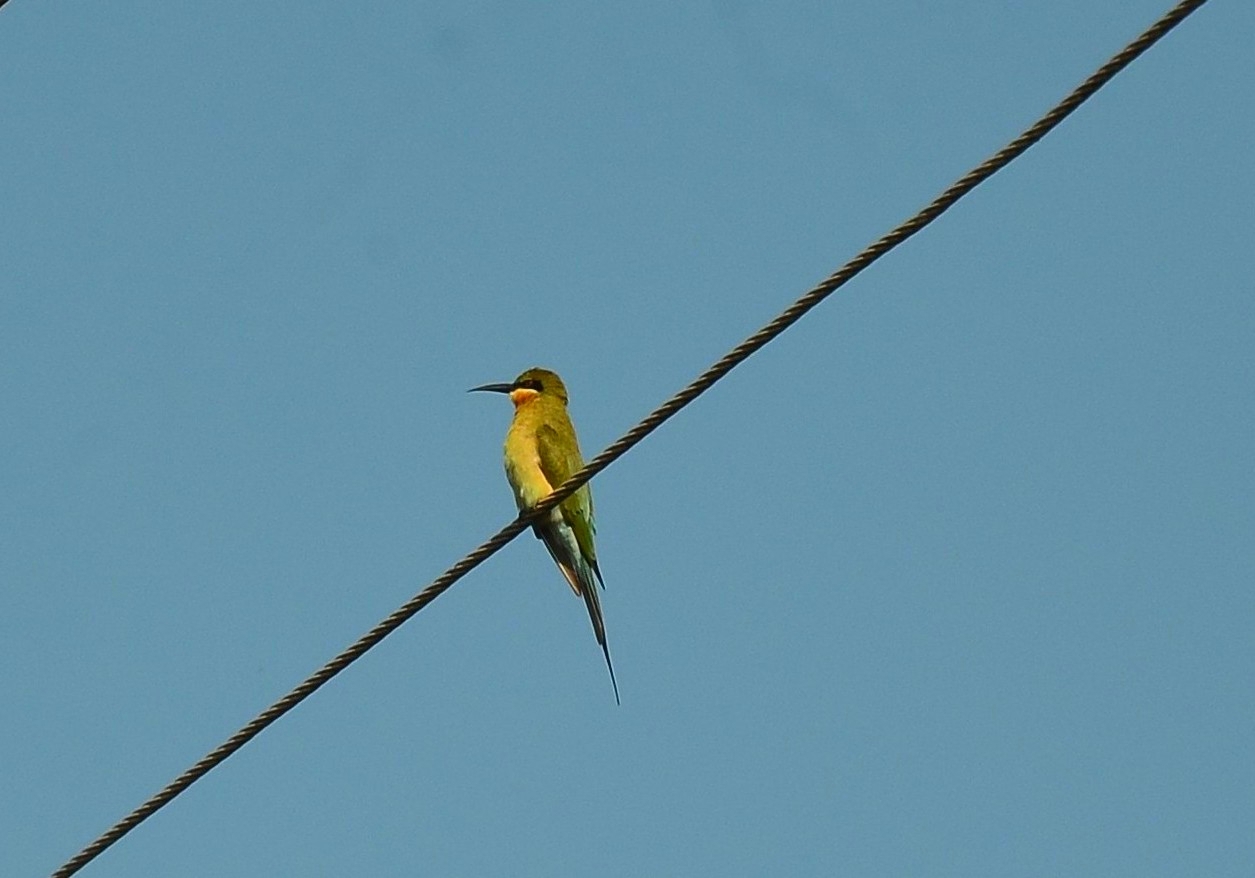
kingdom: Animalia
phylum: Chordata
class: Aves
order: Coraciiformes
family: Meropidae
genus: Merops
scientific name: Merops philippinus
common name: Blue-tailed bee-eater
